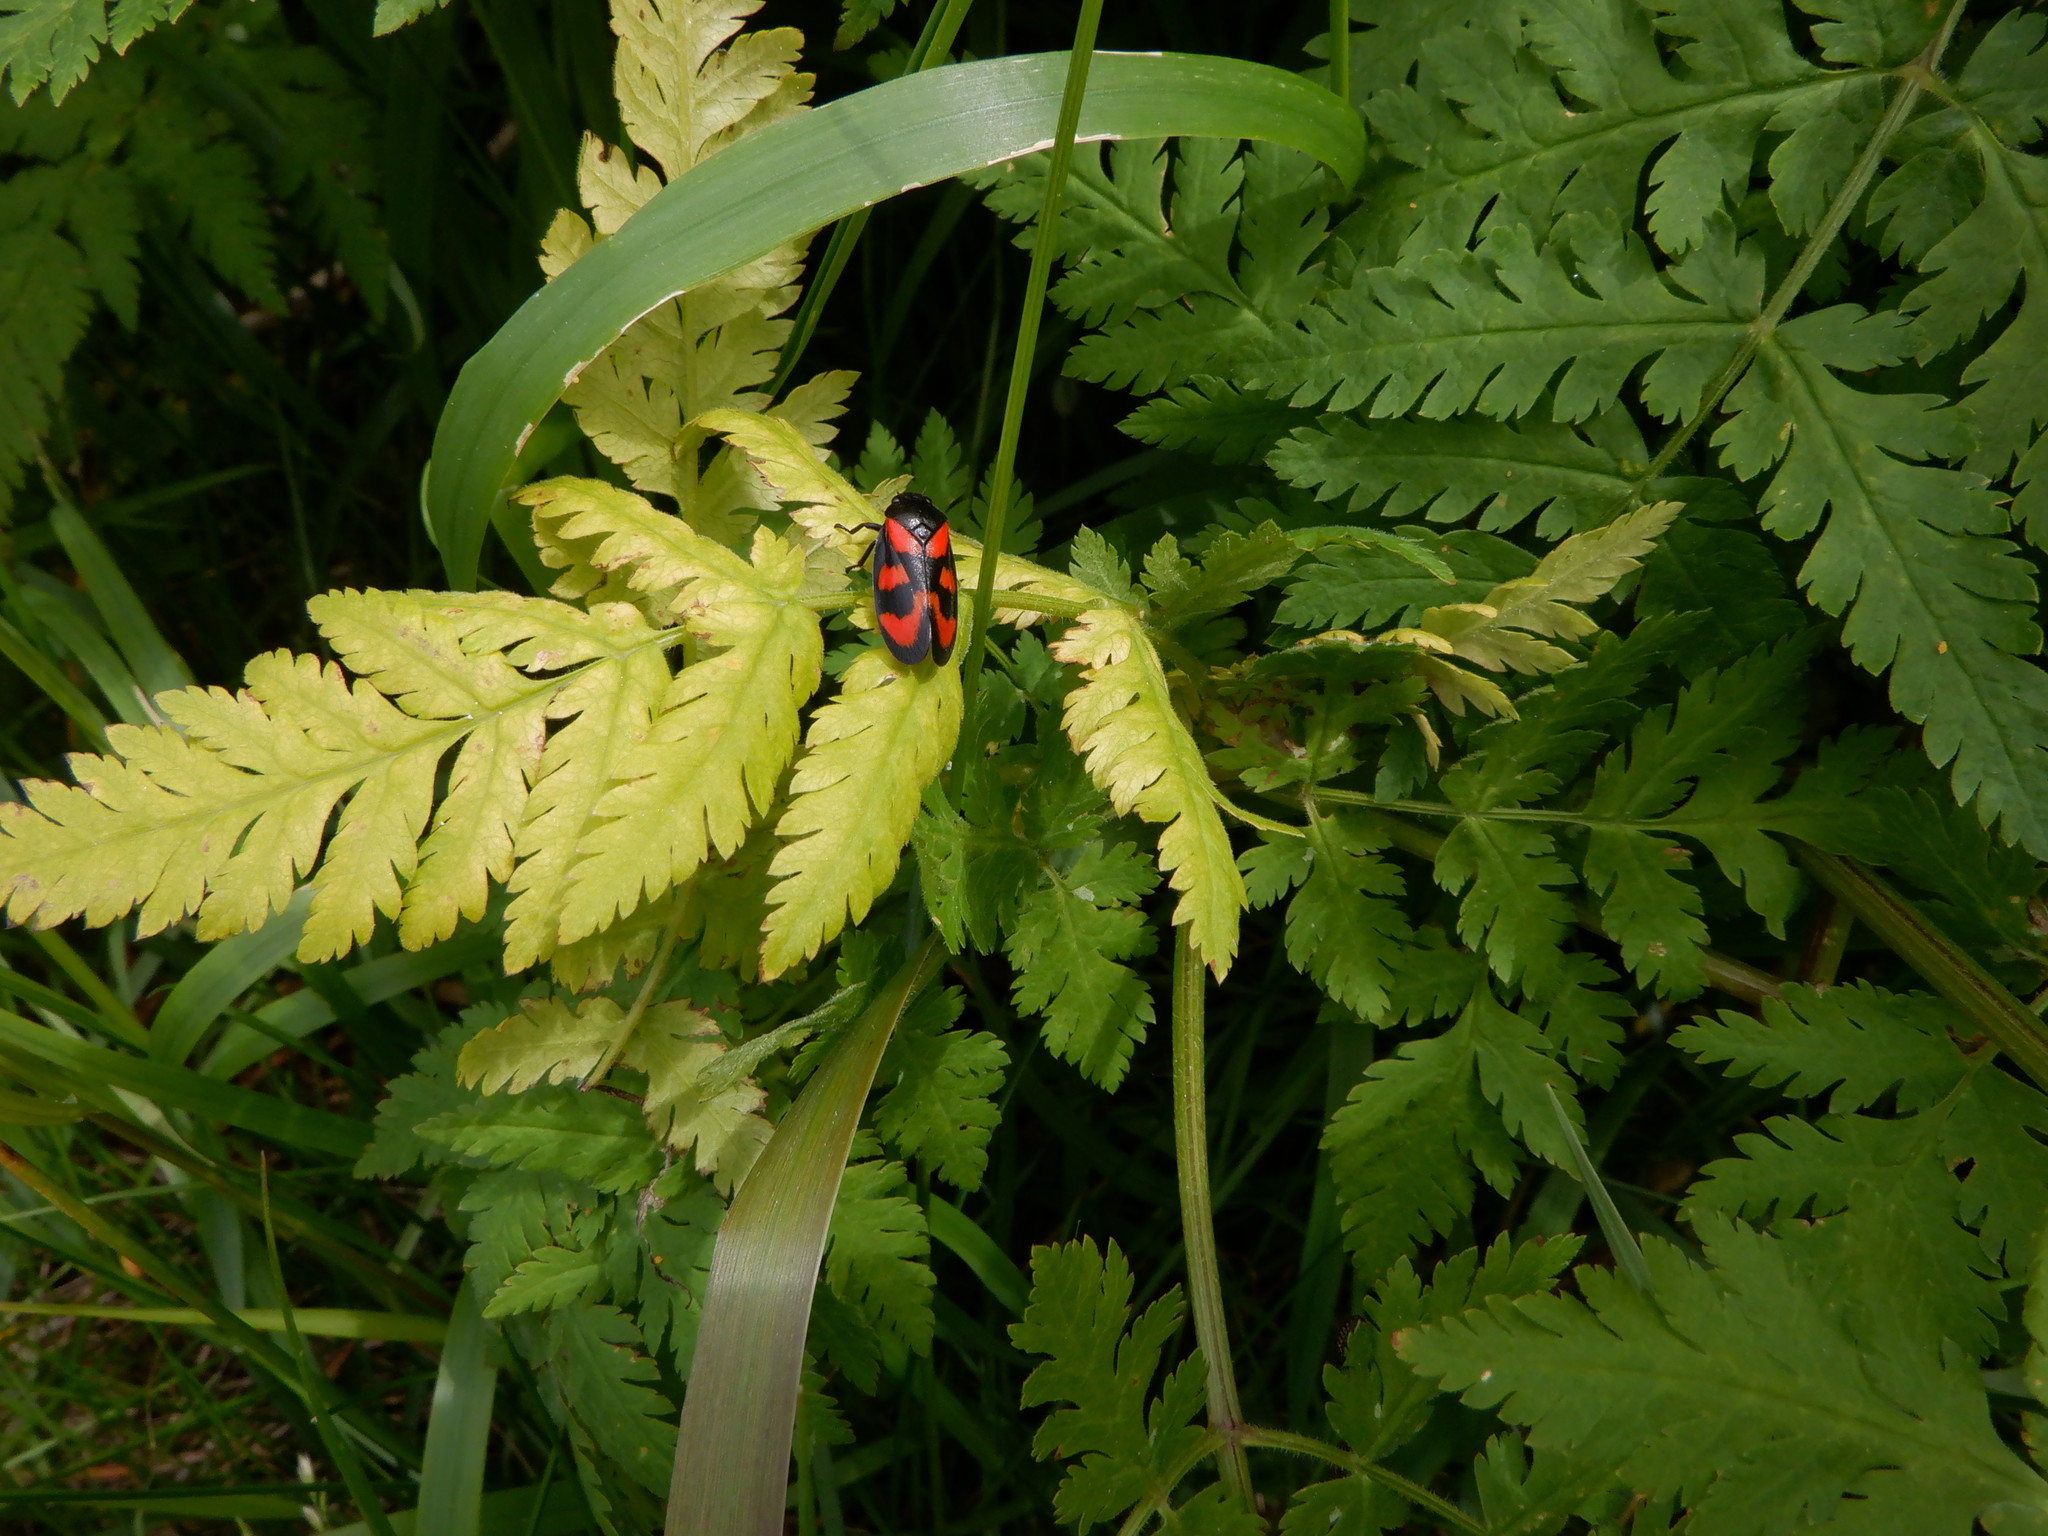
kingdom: Animalia
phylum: Arthropoda
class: Insecta
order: Hemiptera
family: Cercopidae
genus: Cercopis
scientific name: Cercopis vulnerata
